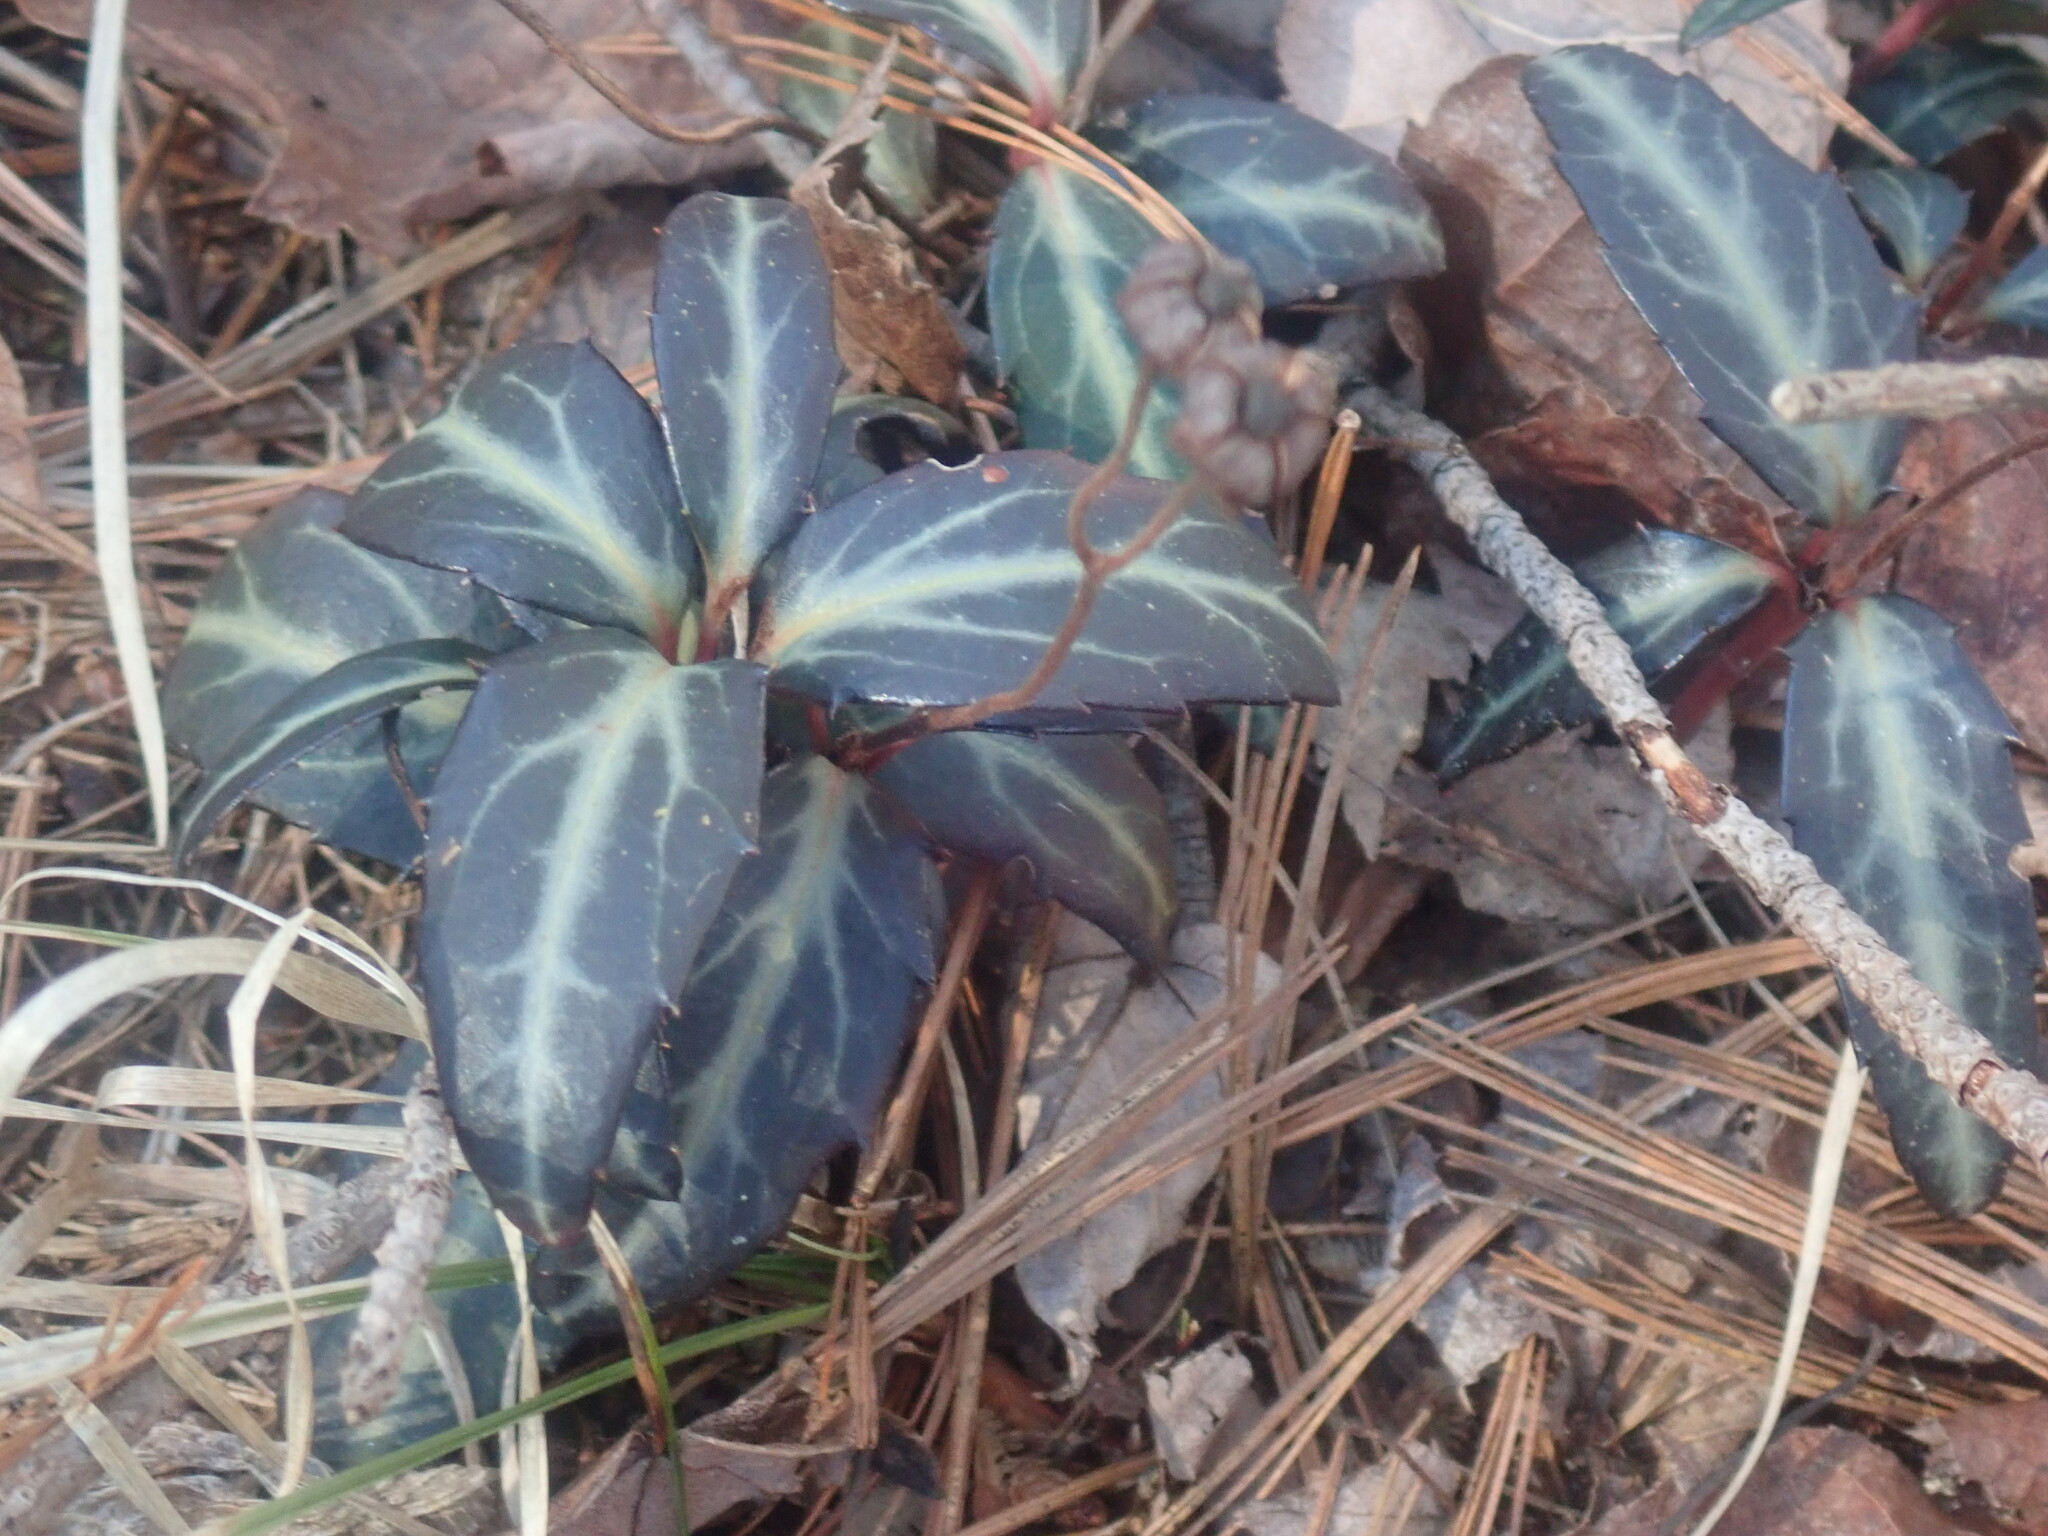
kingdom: Plantae
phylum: Tracheophyta
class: Magnoliopsida
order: Ericales
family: Ericaceae
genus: Chimaphila
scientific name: Chimaphila maculata
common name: Spotted pipsissewa
